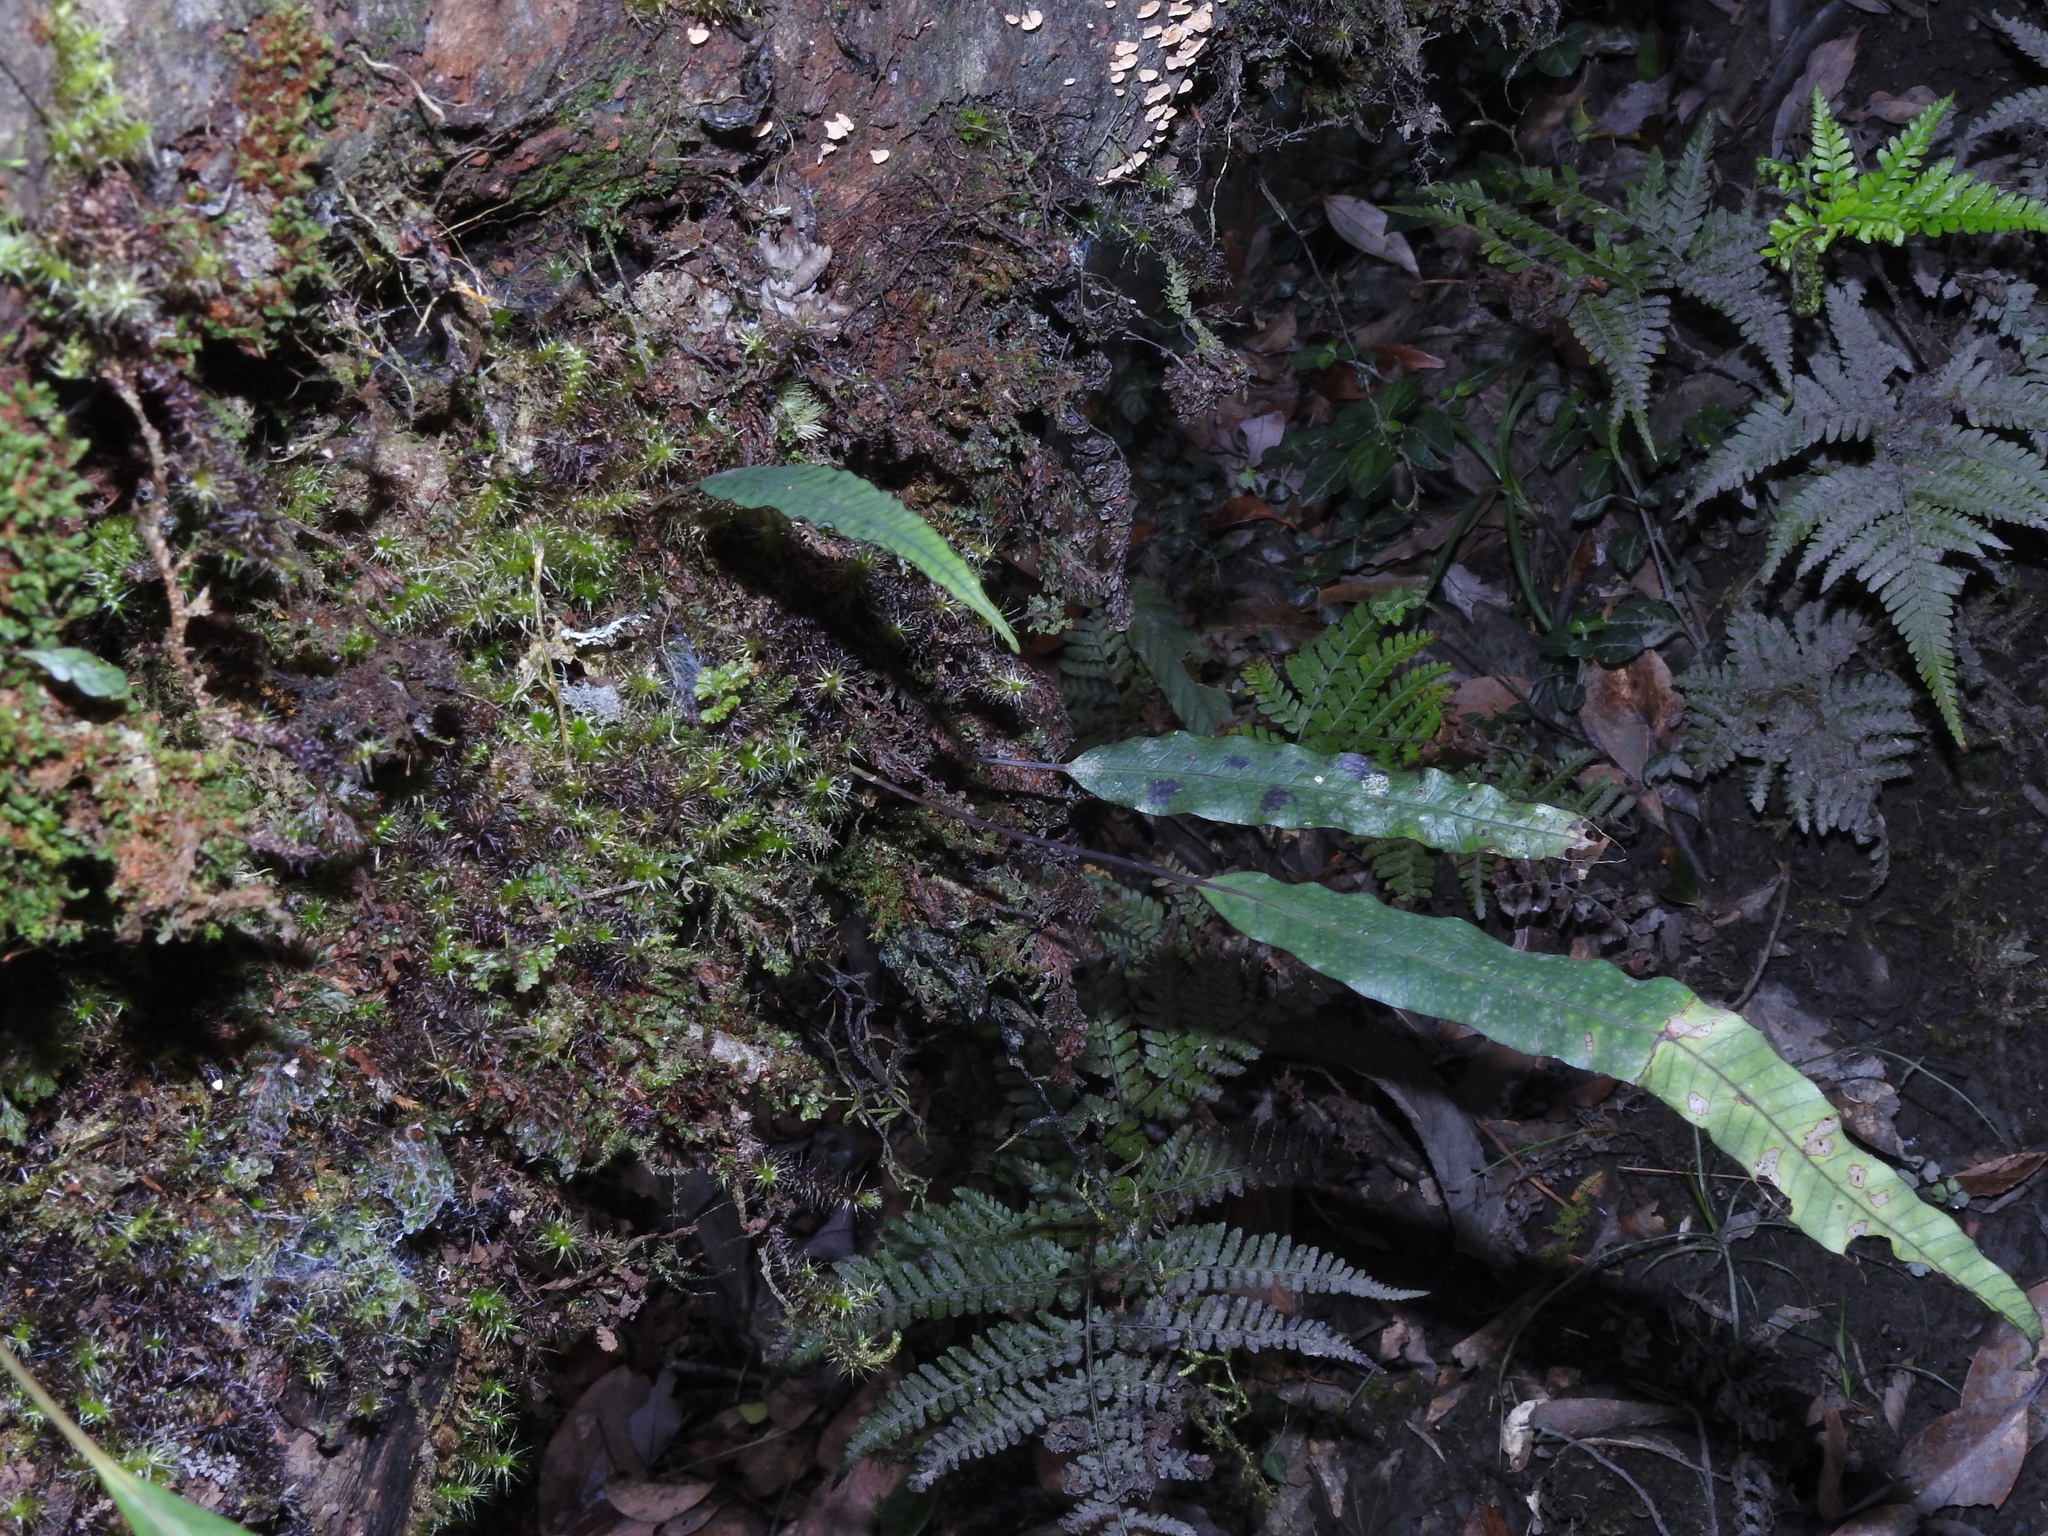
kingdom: Plantae
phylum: Tracheophyta
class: Polypodiopsida
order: Polypodiales
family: Polypodiaceae
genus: Selliguea
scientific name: Selliguea engleri
